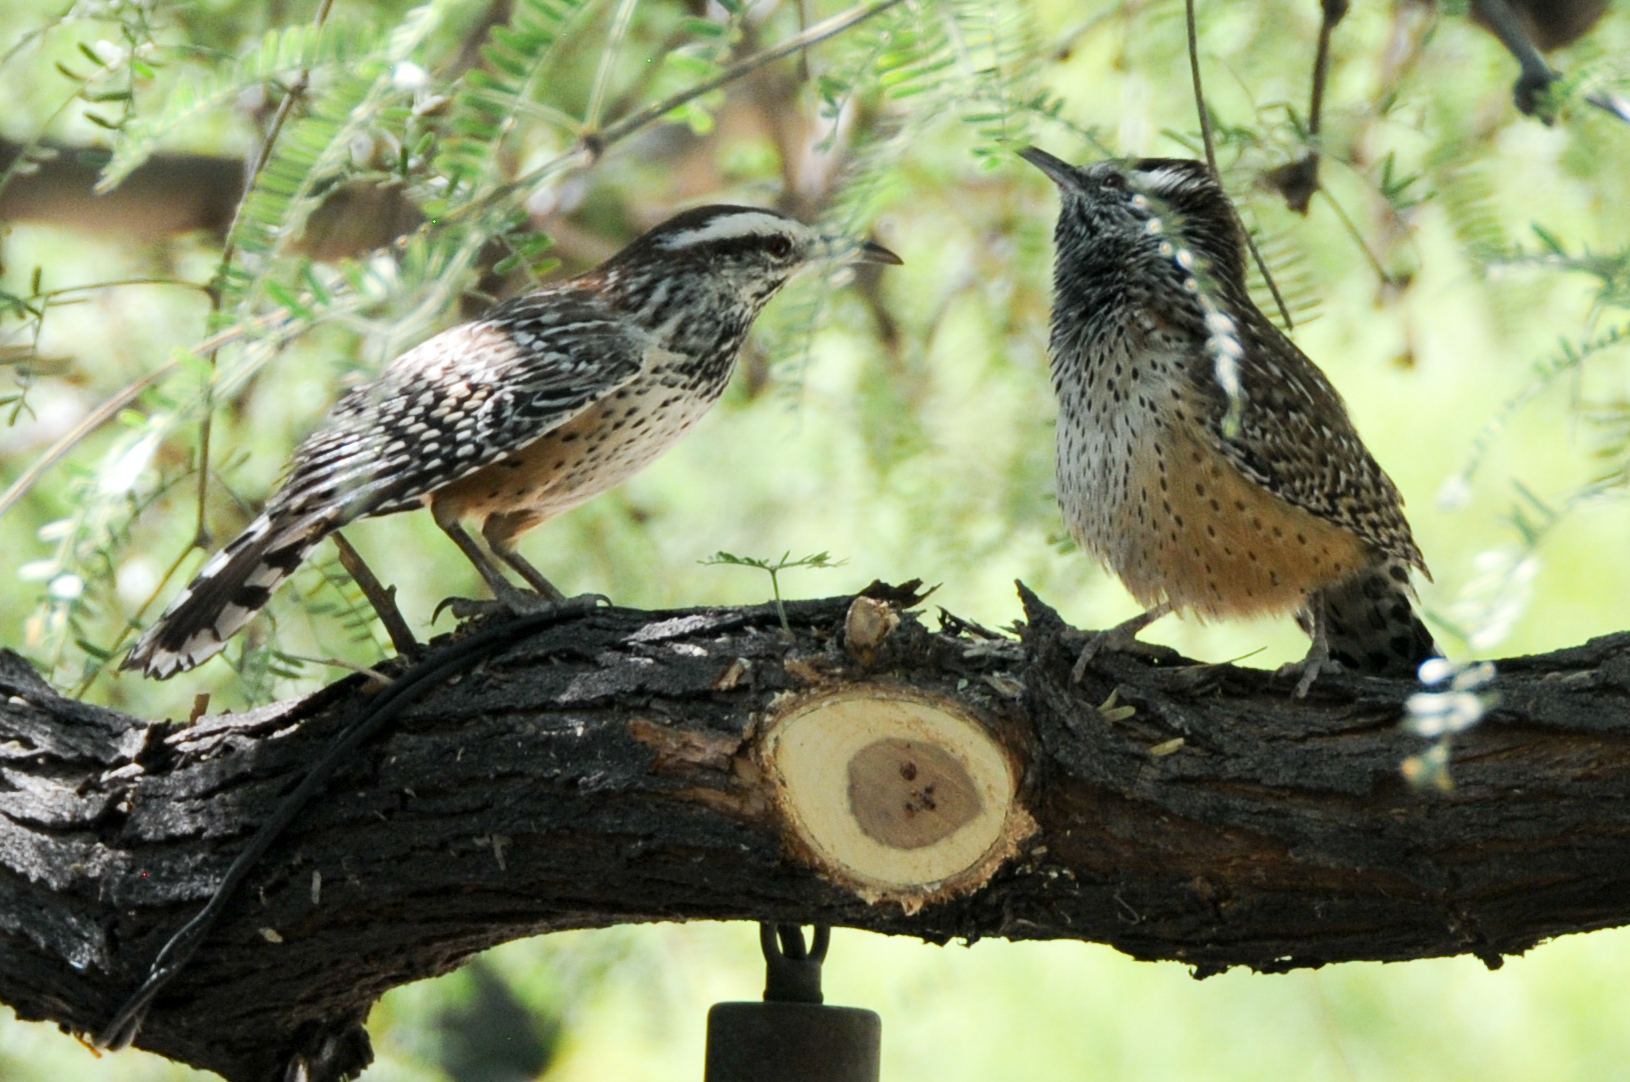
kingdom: Animalia
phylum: Chordata
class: Aves
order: Passeriformes
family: Troglodytidae
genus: Campylorhynchus
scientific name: Campylorhynchus brunneicapillus
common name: Cactus wren
